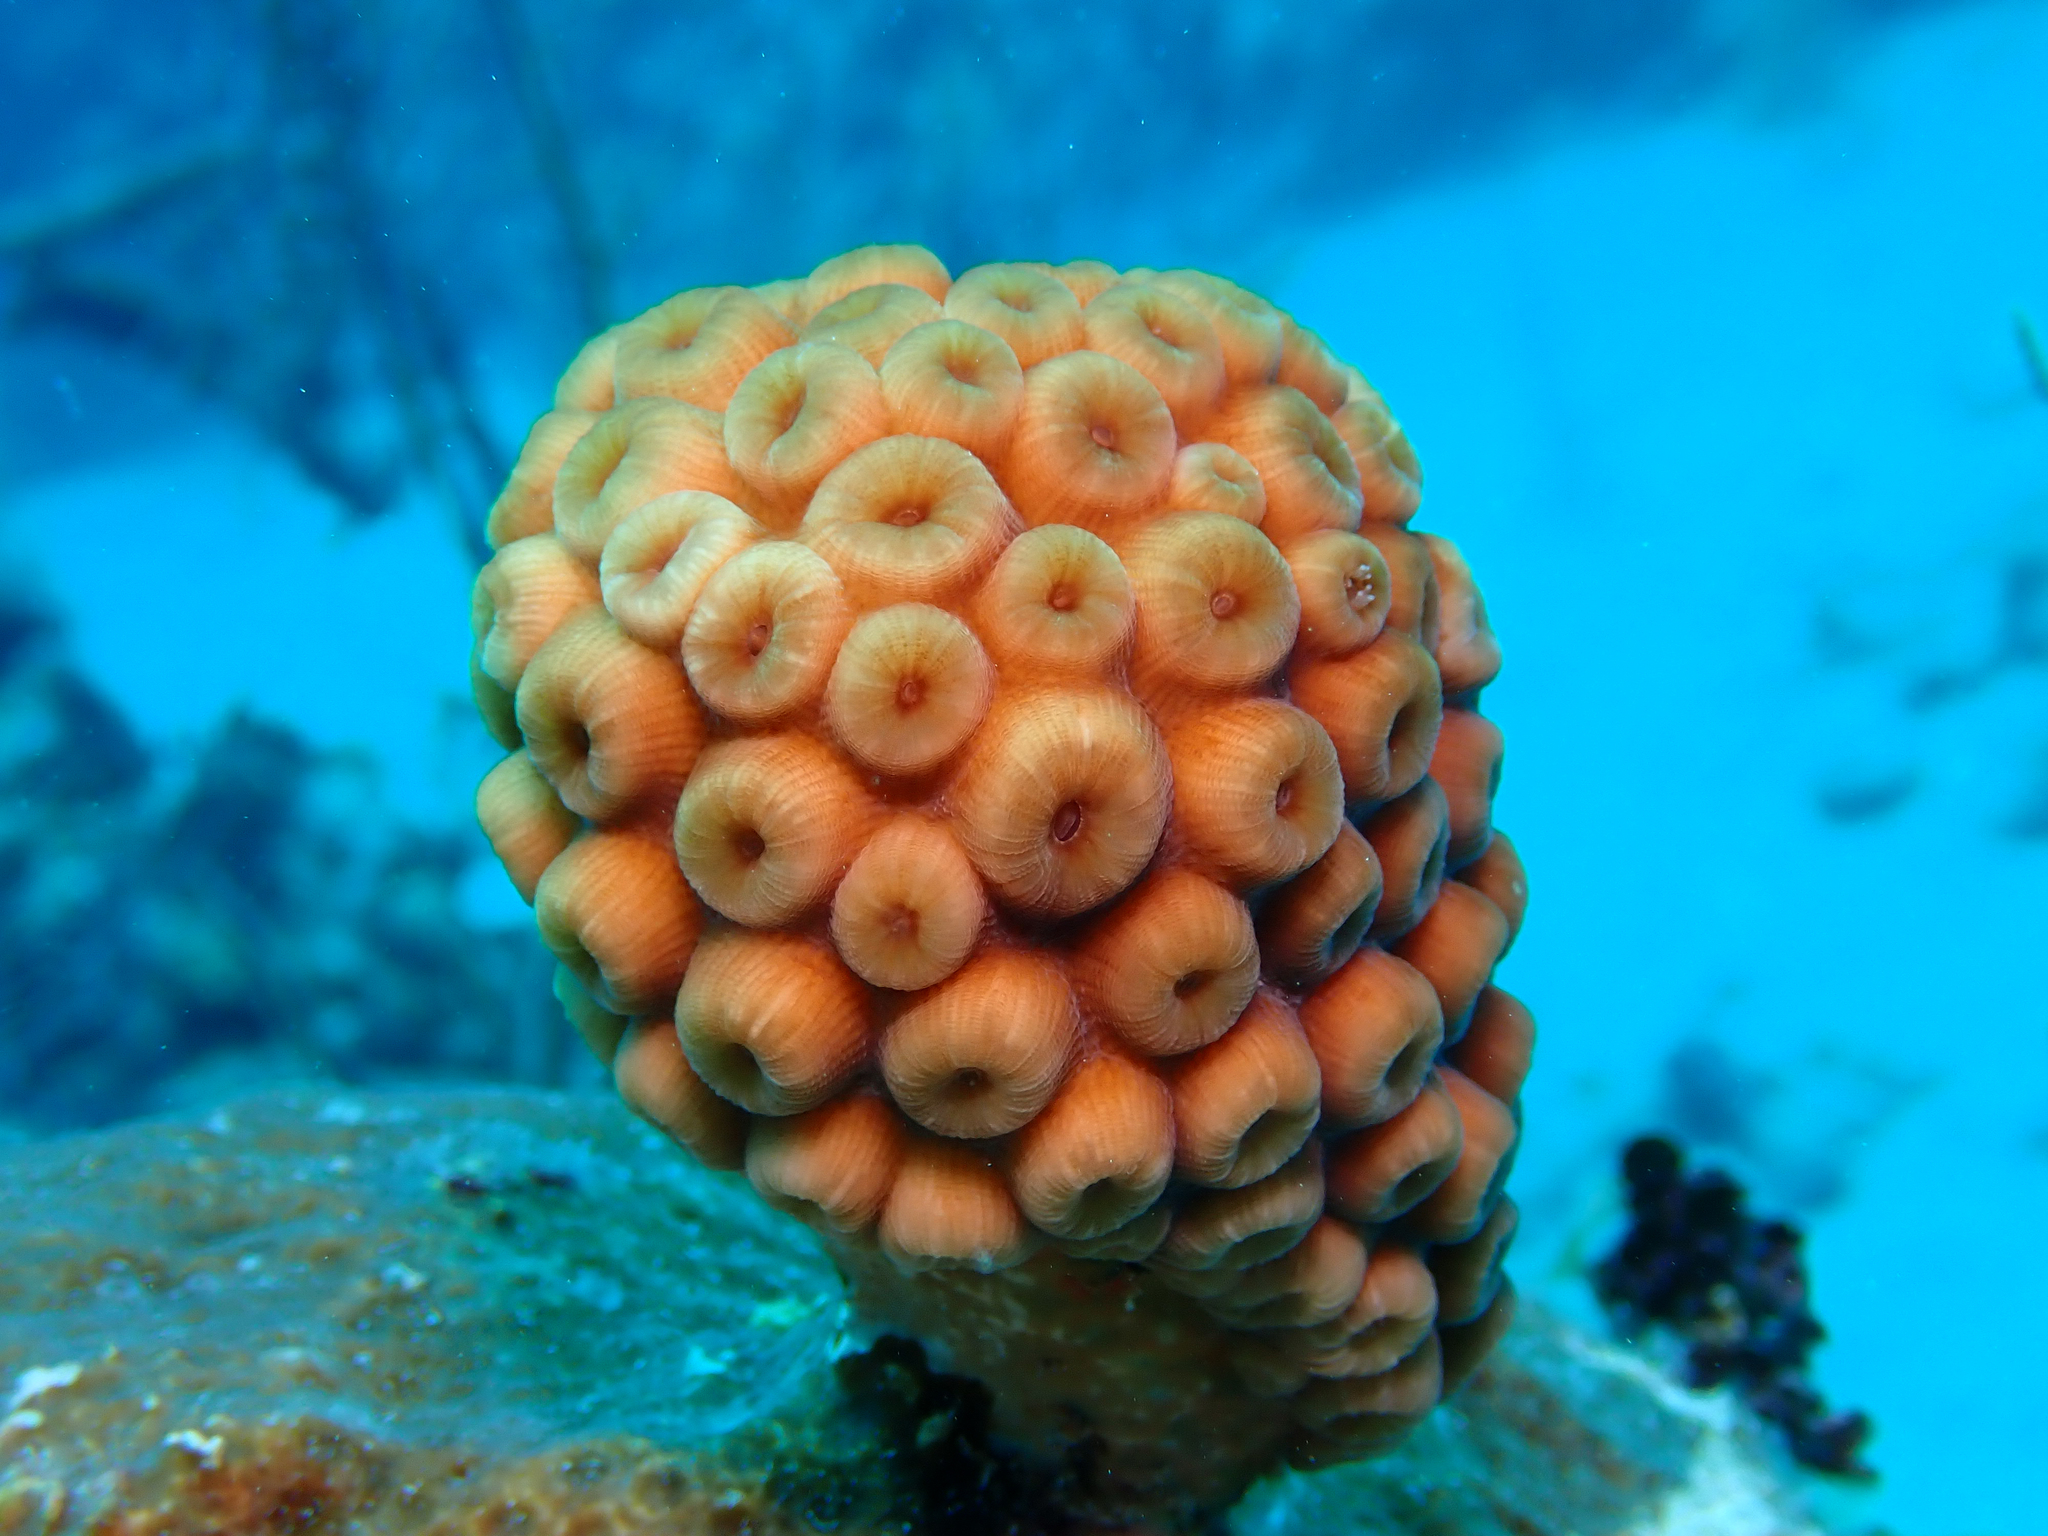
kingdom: Animalia
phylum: Cnidaria
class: Anthozoa
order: Scleractinia
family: Montastraeidae
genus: Montastraea
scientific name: Montastraea cavernosa
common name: Great star coral
